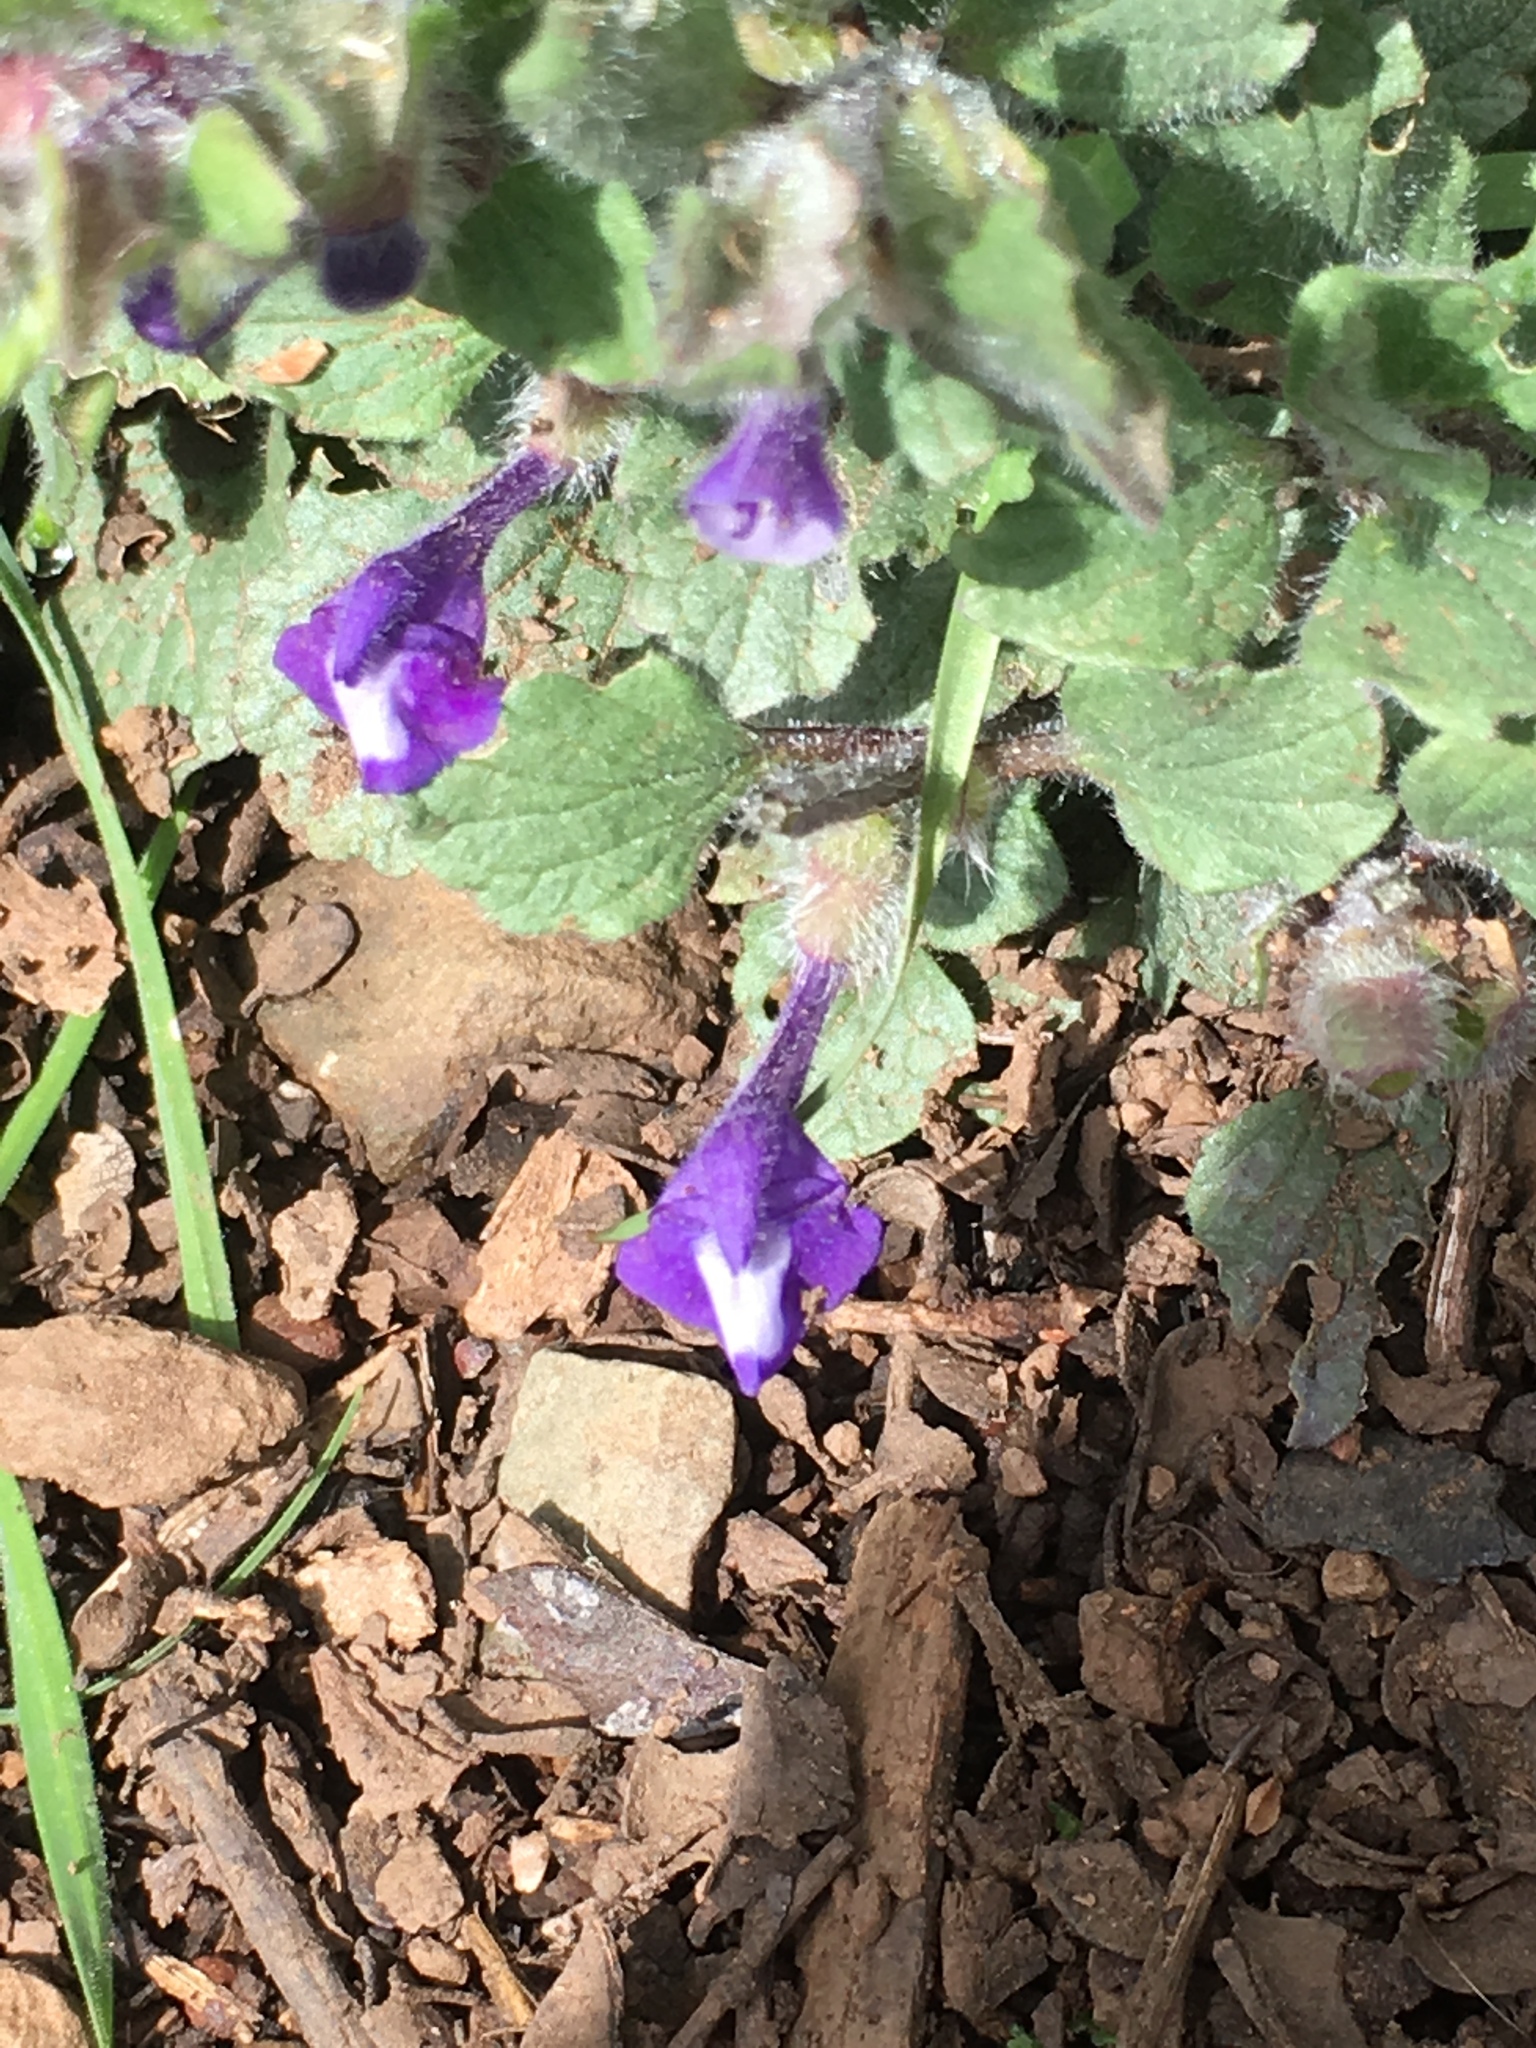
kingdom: Plantae
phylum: Tracheophyta
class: Magnoliopsida
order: Lamiales
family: Lamiaceae
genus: Scutellaria
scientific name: Scutellaria tuberosa
